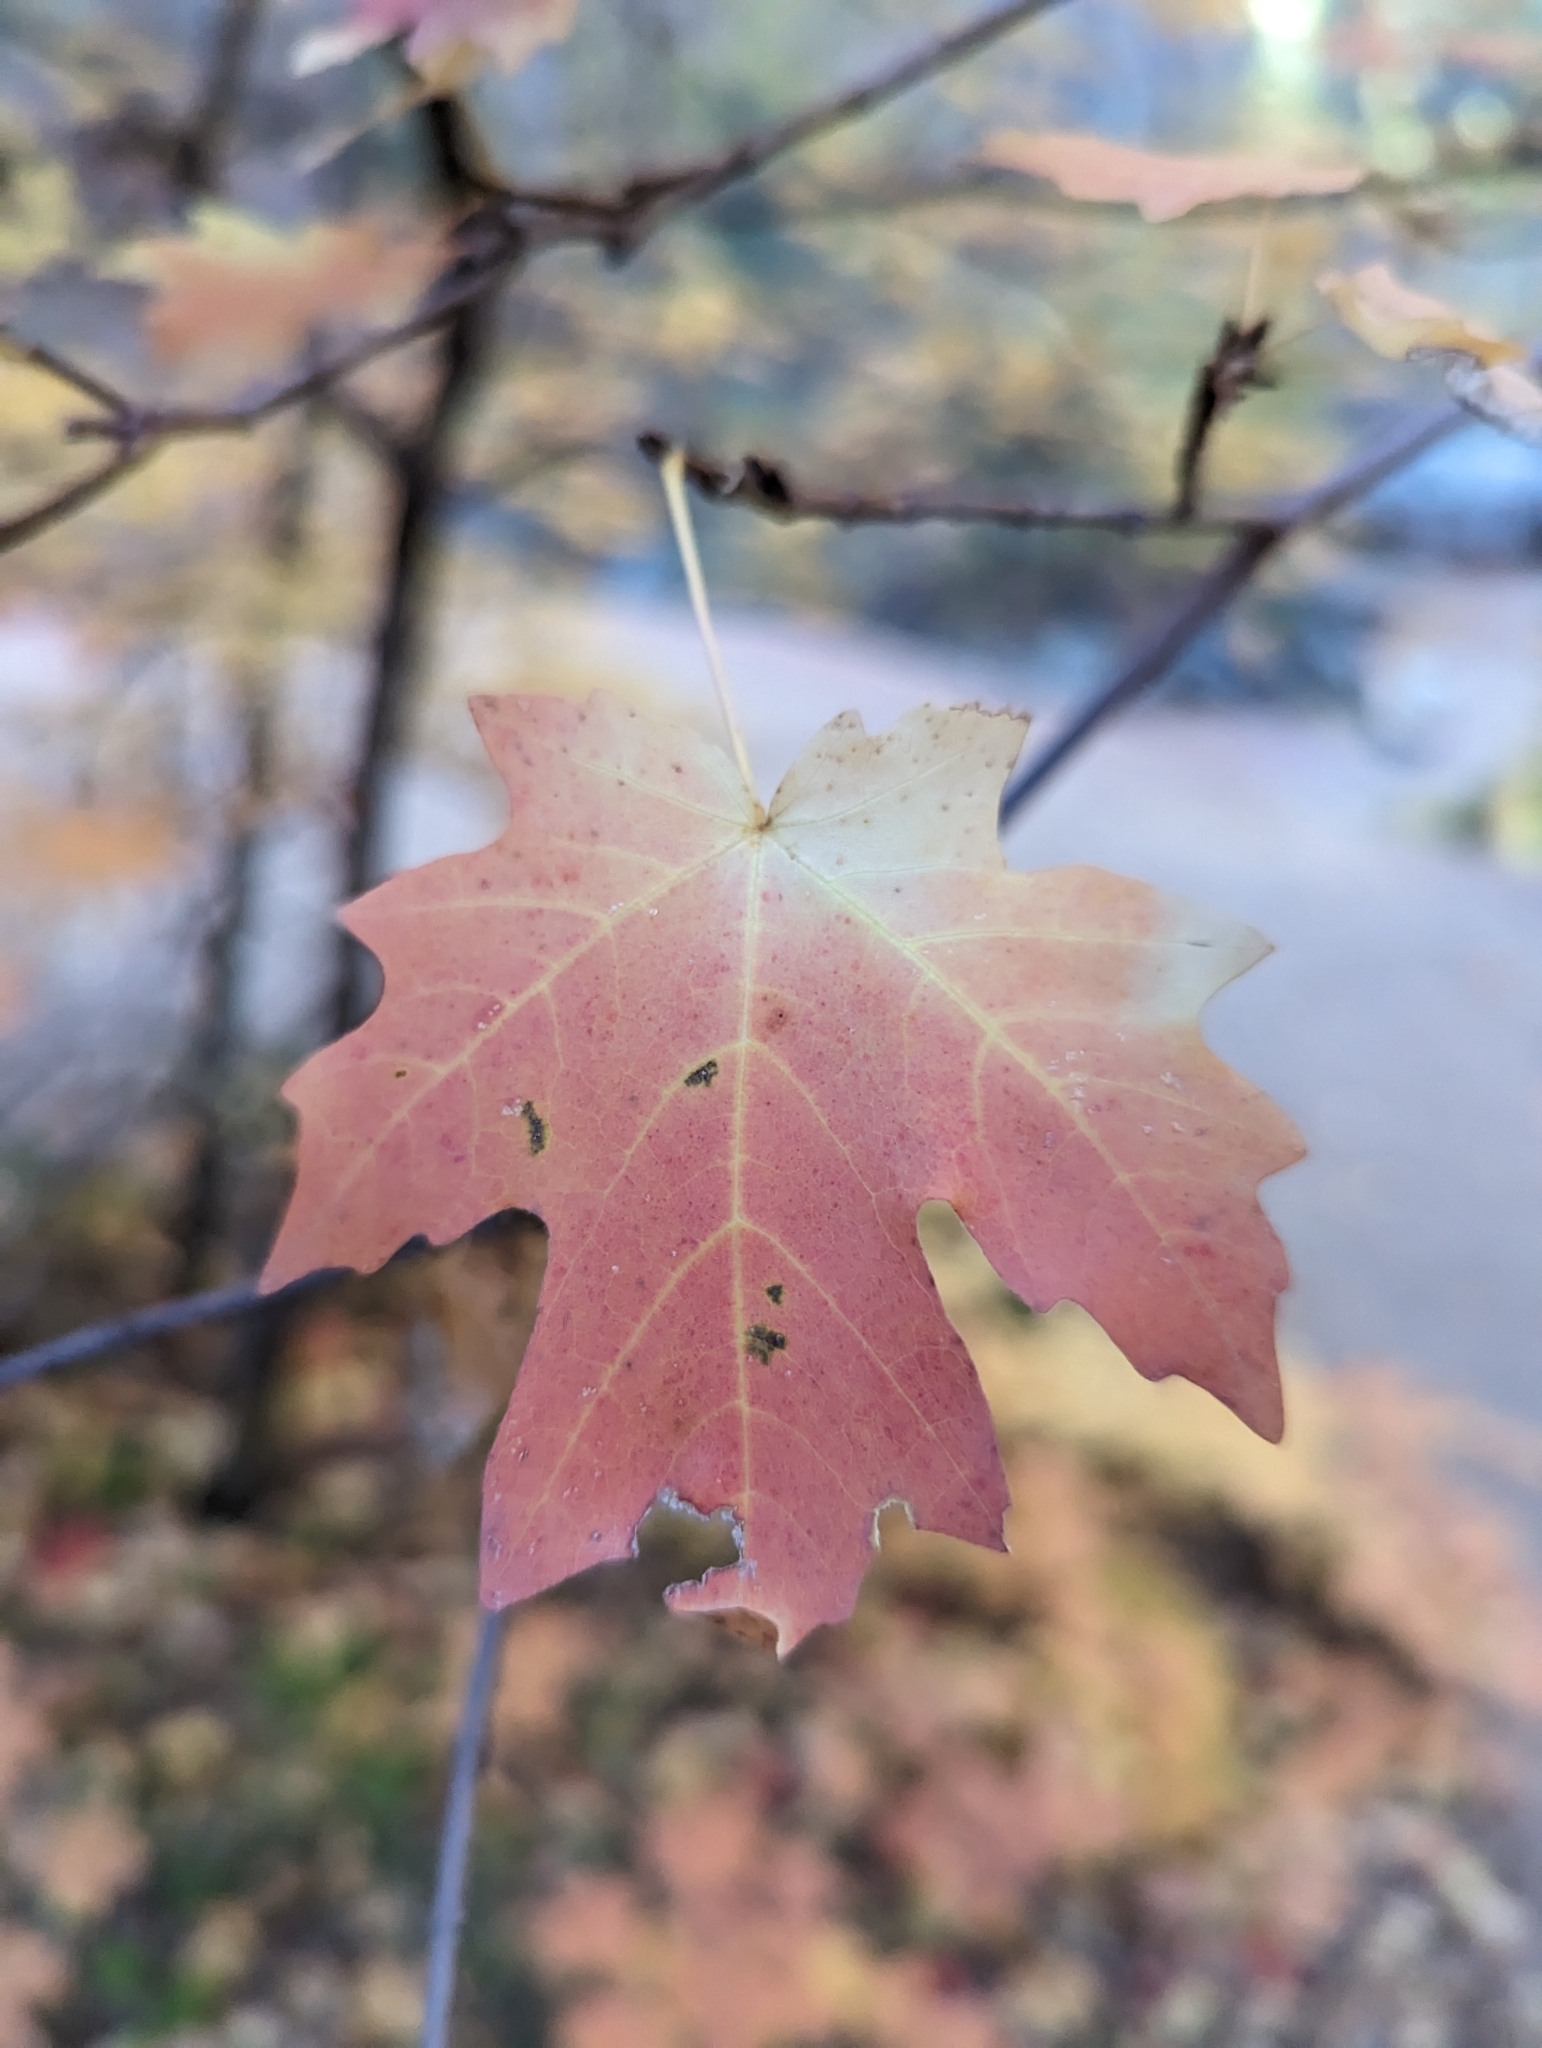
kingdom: Plantae
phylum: Tracheophyta
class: Magnoliopsida
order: Sapindales
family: Sapindaceae
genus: Acer
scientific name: Acer grandidentatum
